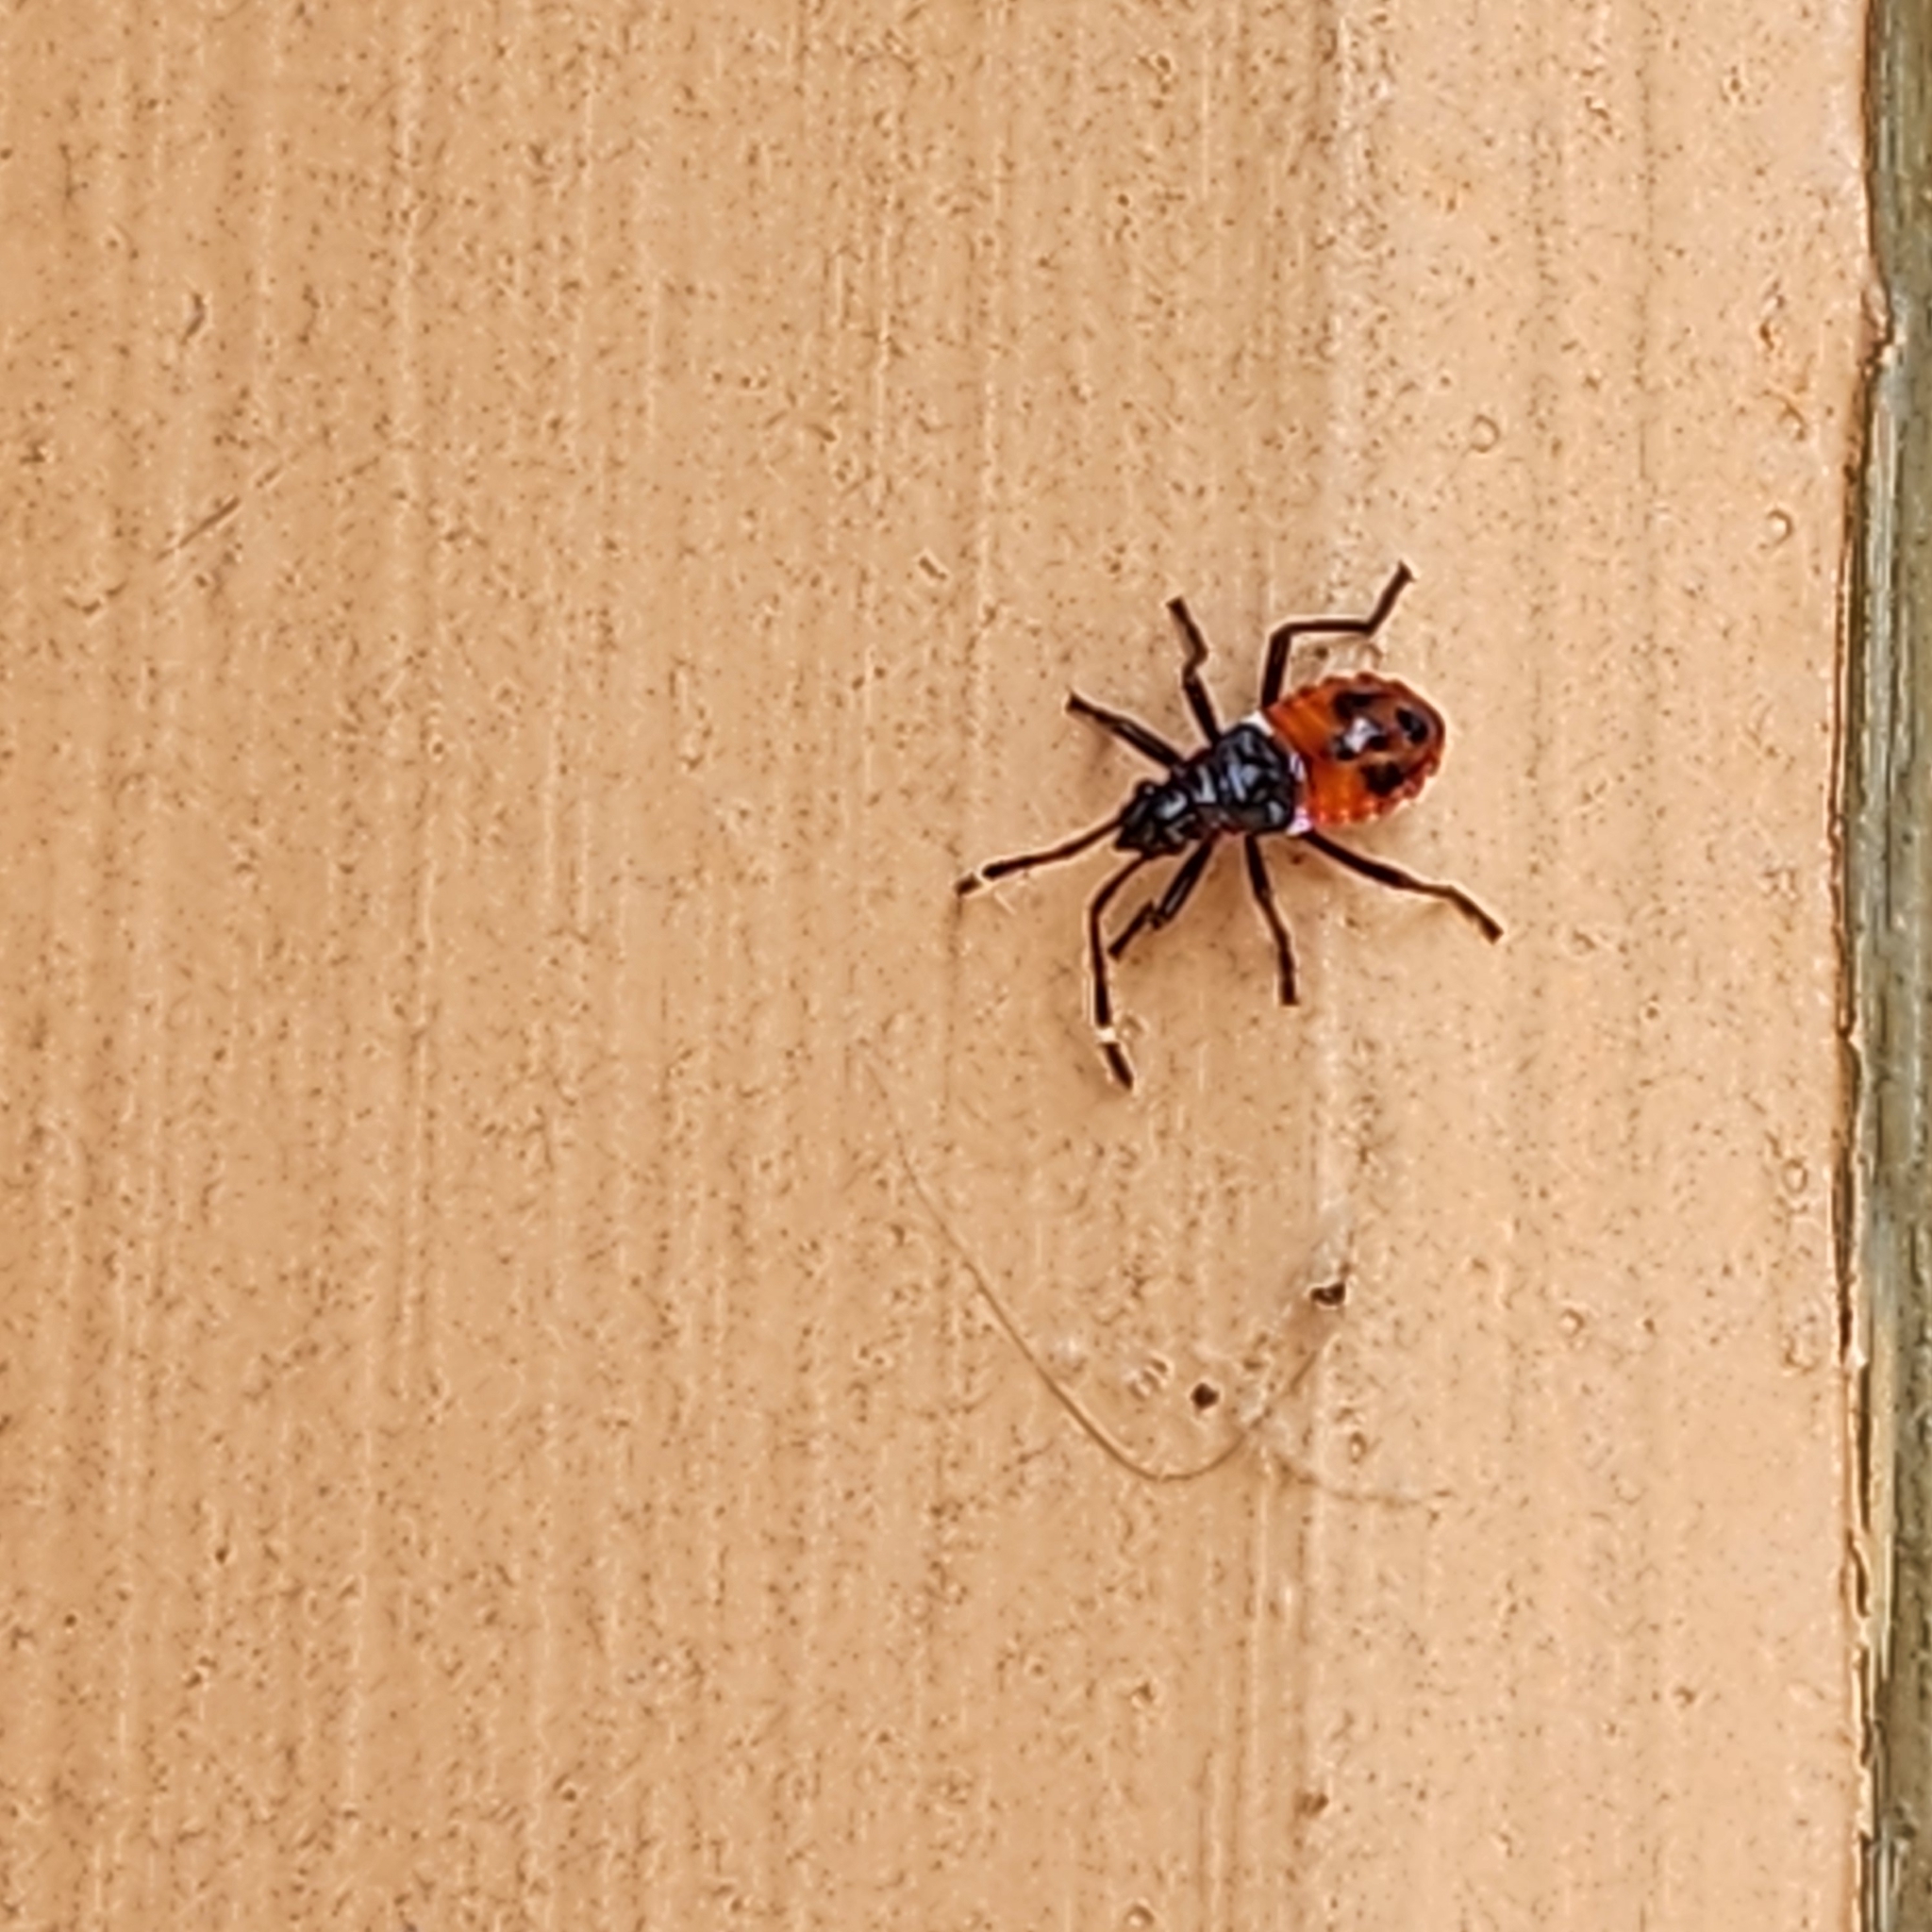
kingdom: Animalia
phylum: Arthropoda
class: Insecta
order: Hemiptera
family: Pyrrhocoridae
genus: Dindymus
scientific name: Dindymus
